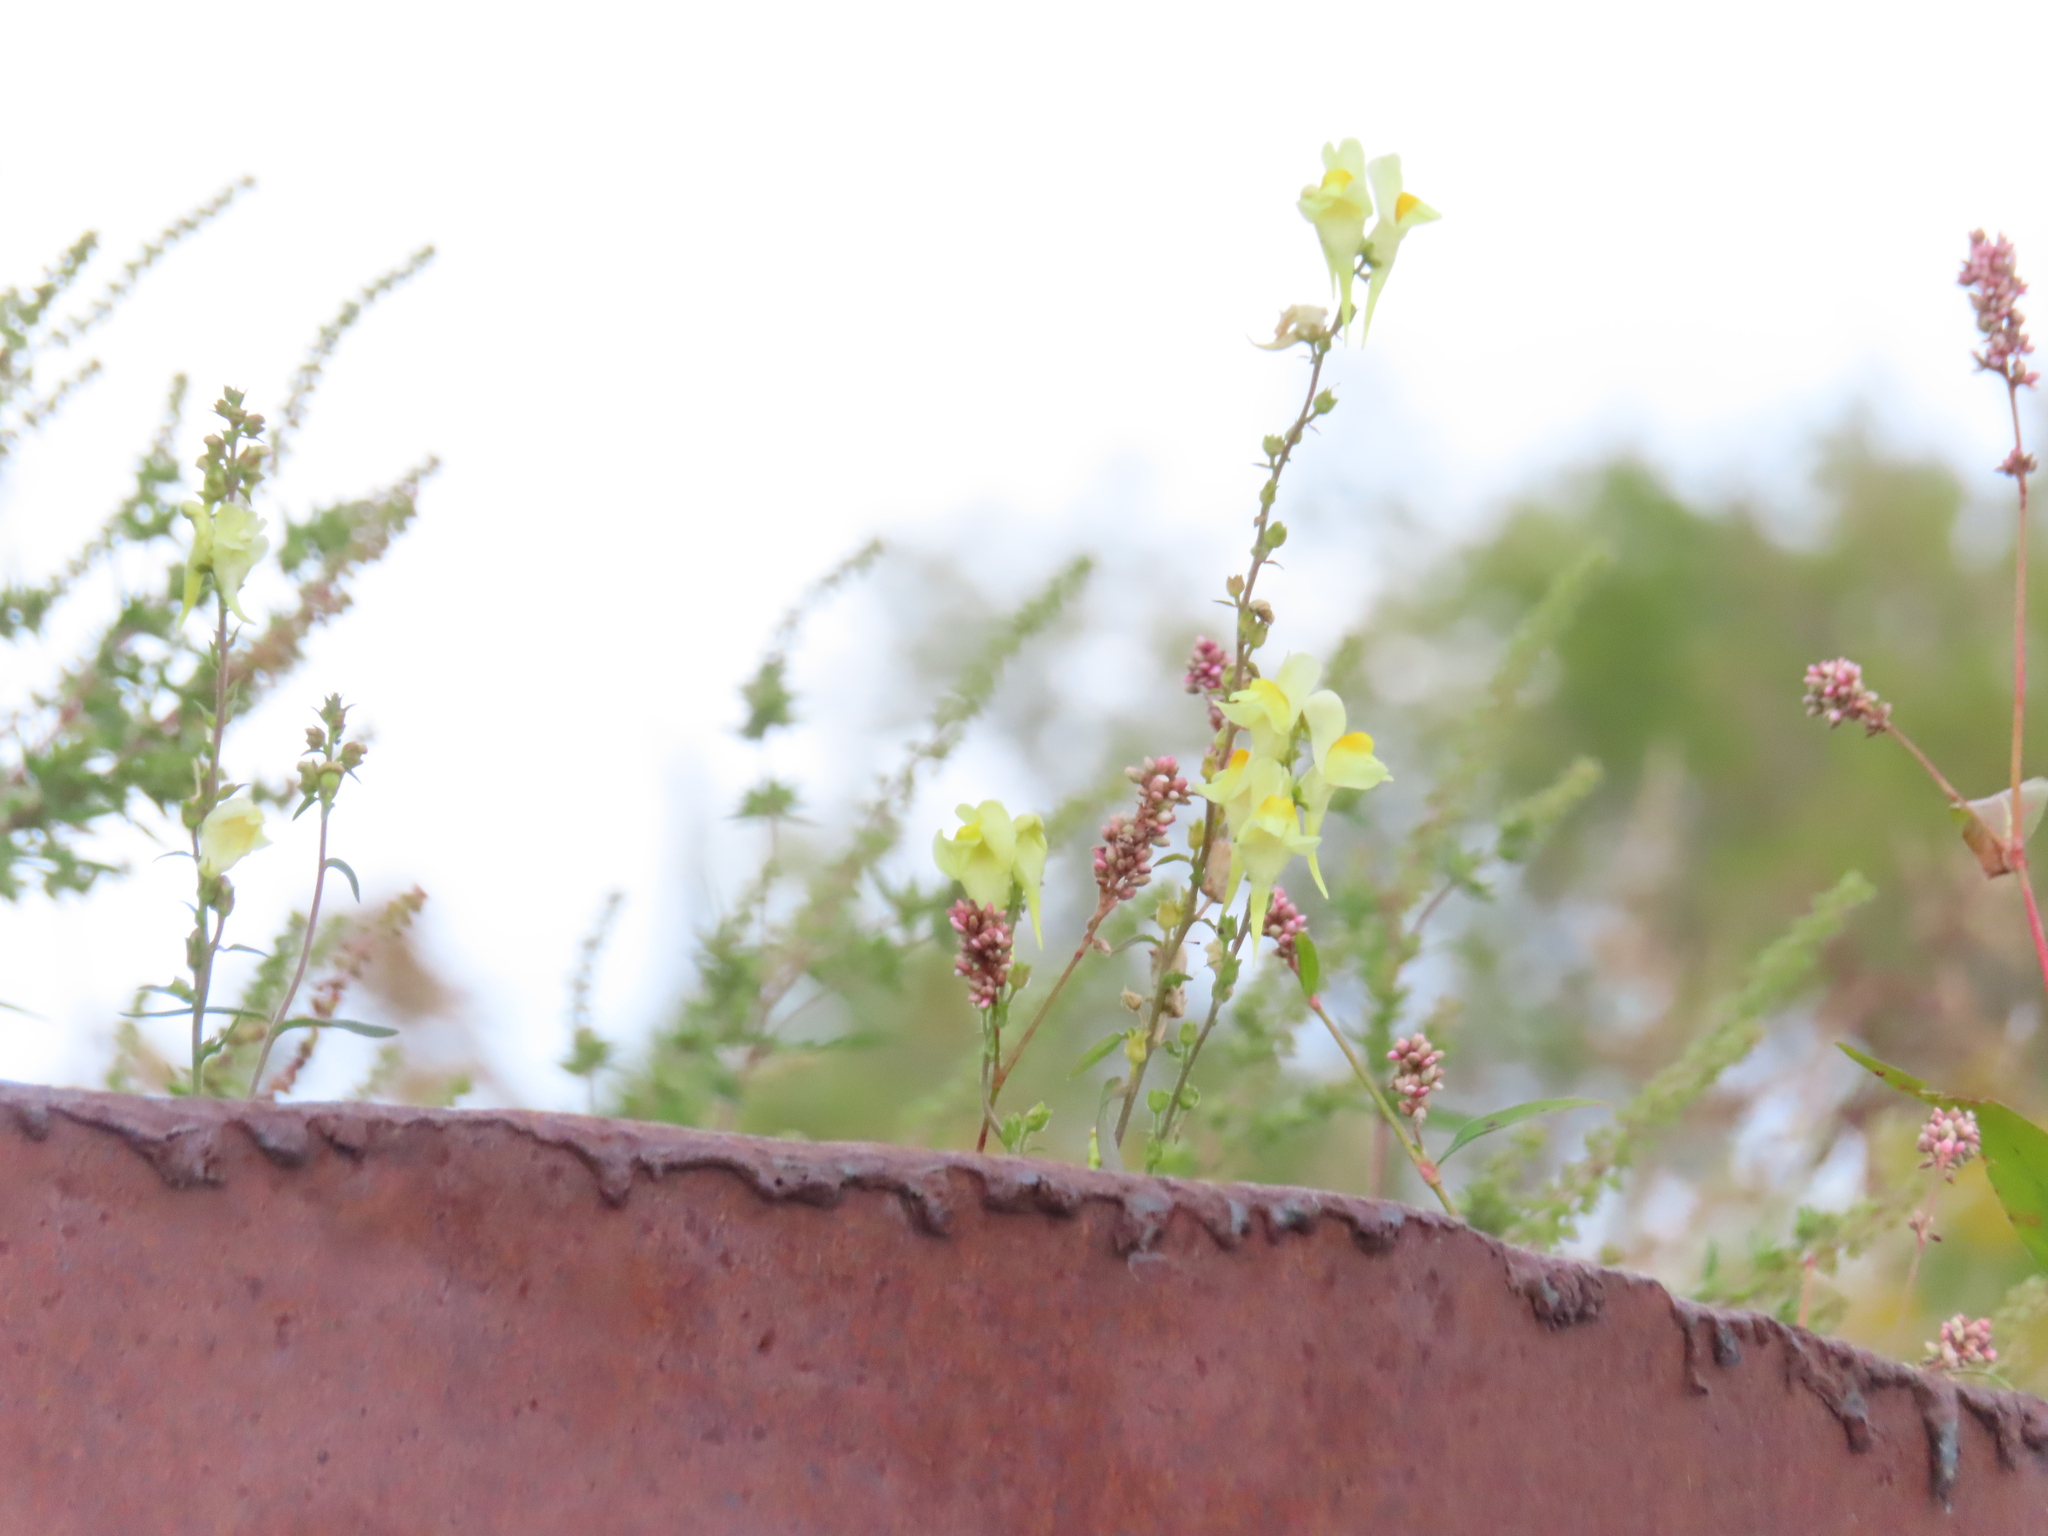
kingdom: Plantae
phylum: Tracheophyta
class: Magnoliopsida
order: Lamiales
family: Plantaginaceae
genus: Linaria
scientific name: Linaria vulgaris
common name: Butter and eggs
